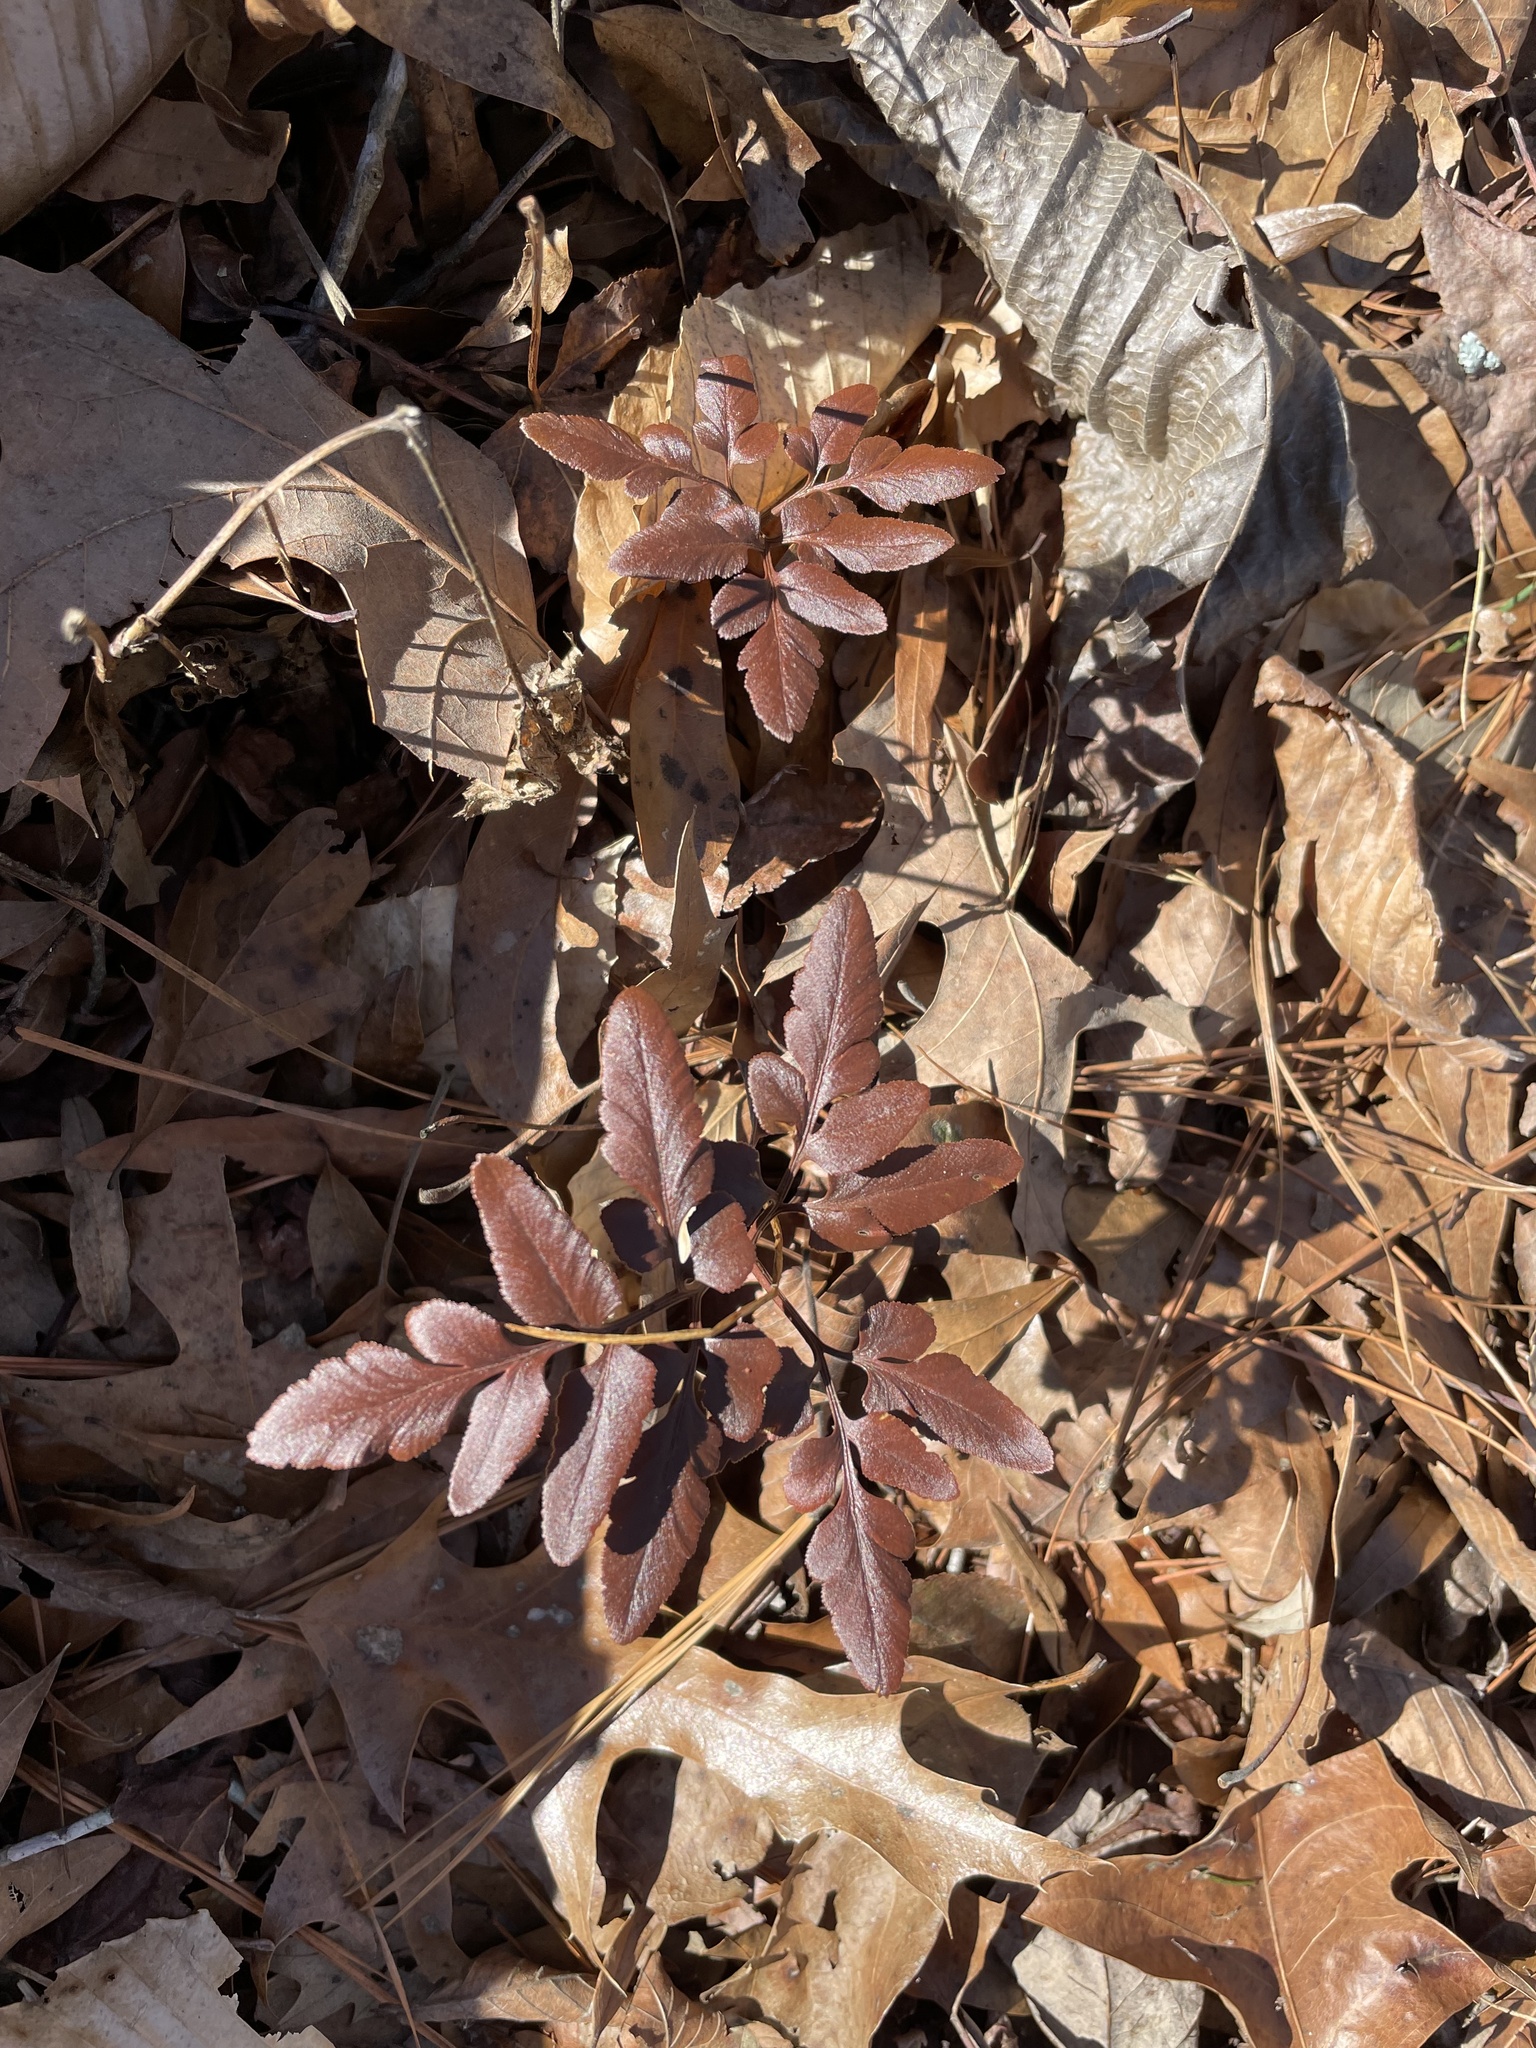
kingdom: Plantae
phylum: Tracheophyta
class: Polypodiopsida
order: Ophioglossales
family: Ophioglossaceae
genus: Sceptridium
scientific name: Sceptridium biternatum
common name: Sparse-lobed grapefern
